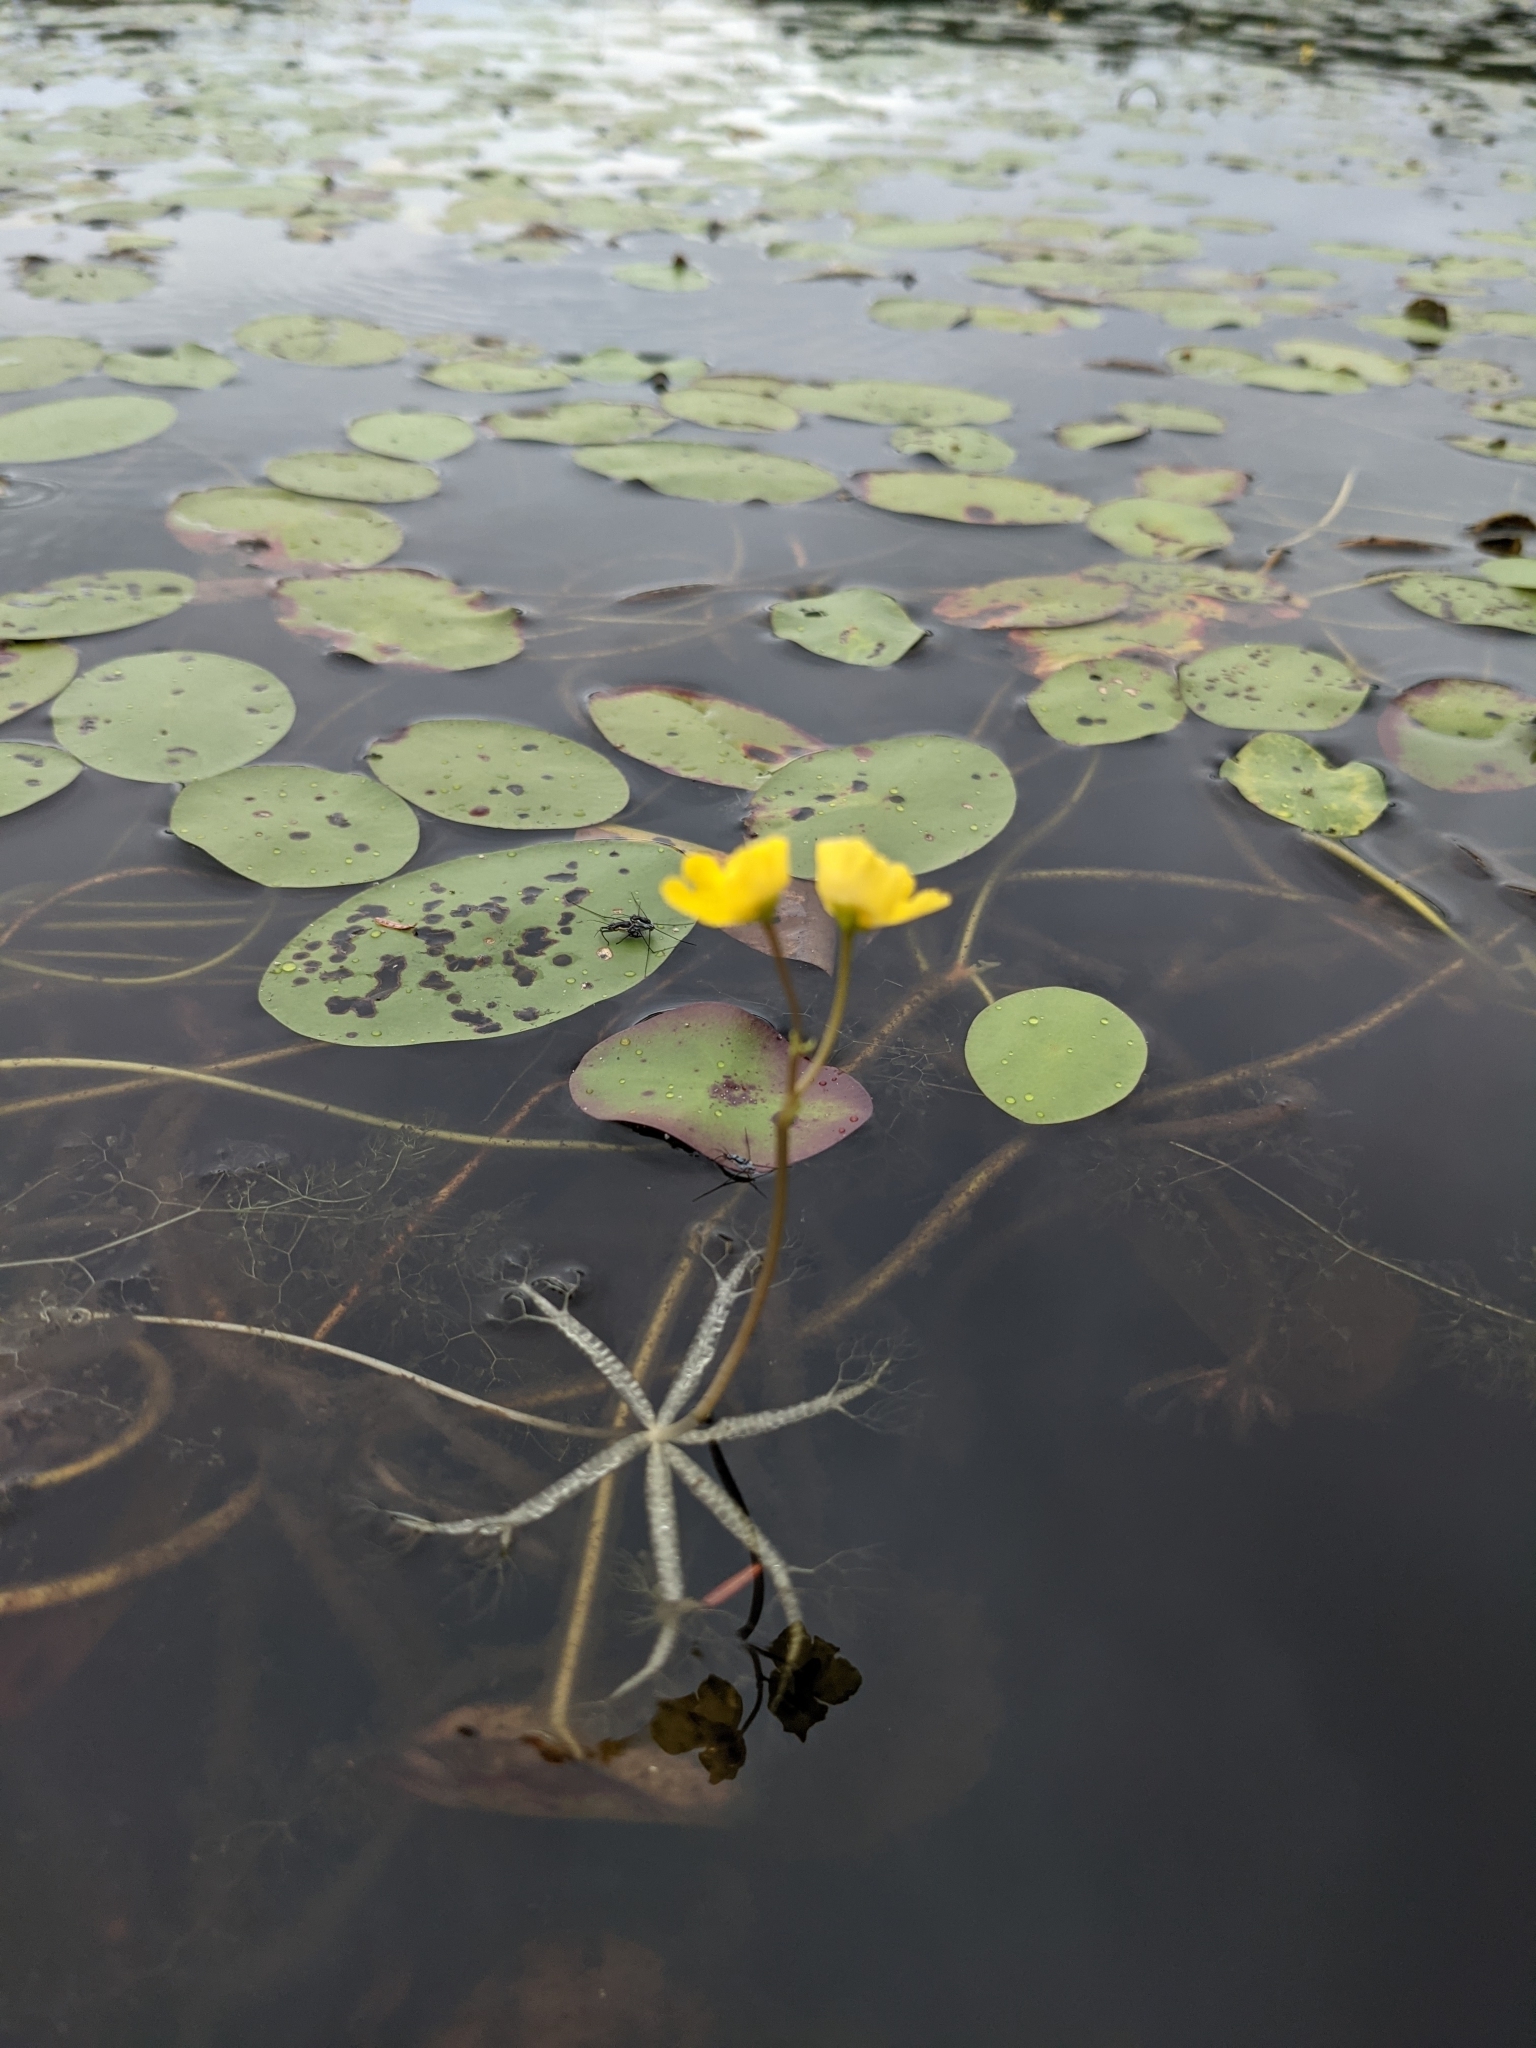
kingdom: Plantae
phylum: Tracheophyta
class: Magnoliopsida
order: Lamiales
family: Lentibulariaceae
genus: Utricularia
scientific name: Utricularia radiata
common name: Floating bladderwort
